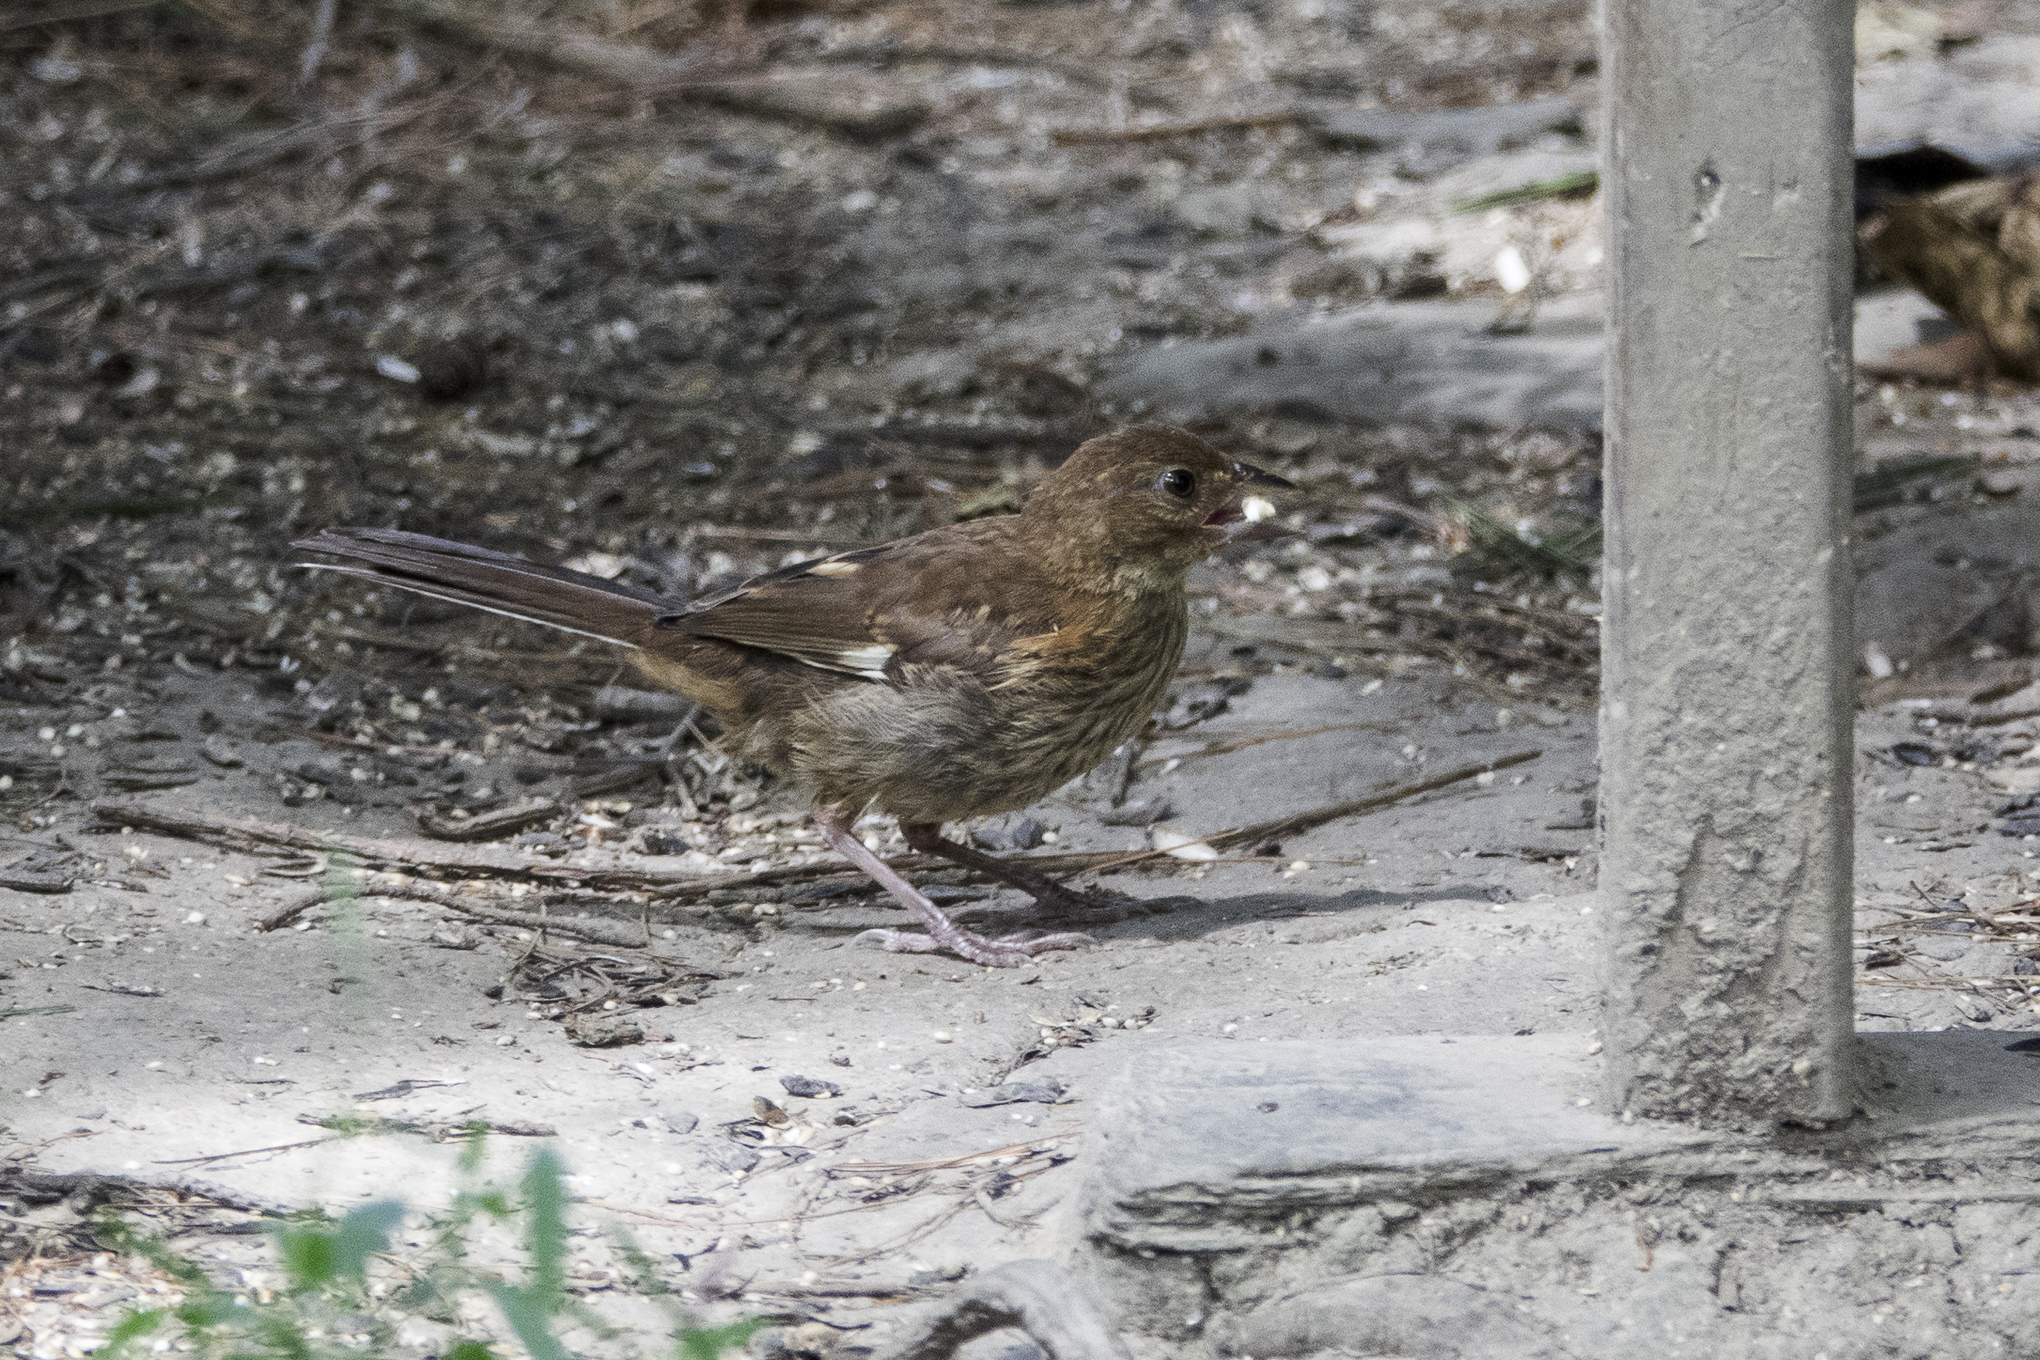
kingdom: Animalia
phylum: Chordata
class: Aves
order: Passeriformes
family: Passerellidae
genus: Pipilo
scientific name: Pipilo erythrophthalmus
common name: Eastern towhee
